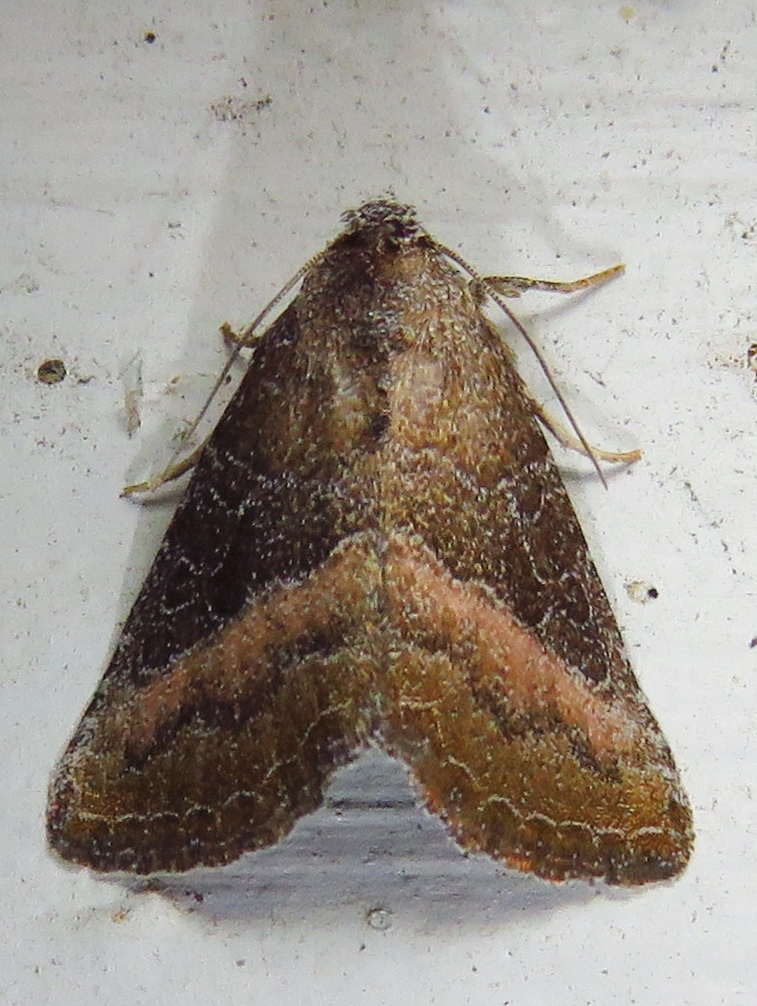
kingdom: Animalia
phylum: Arthropoda
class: Insecta
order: Lepidoptera
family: Noctuidae
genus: Ogdoconta
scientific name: Ogdoconta cinereola
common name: Common pinkband
